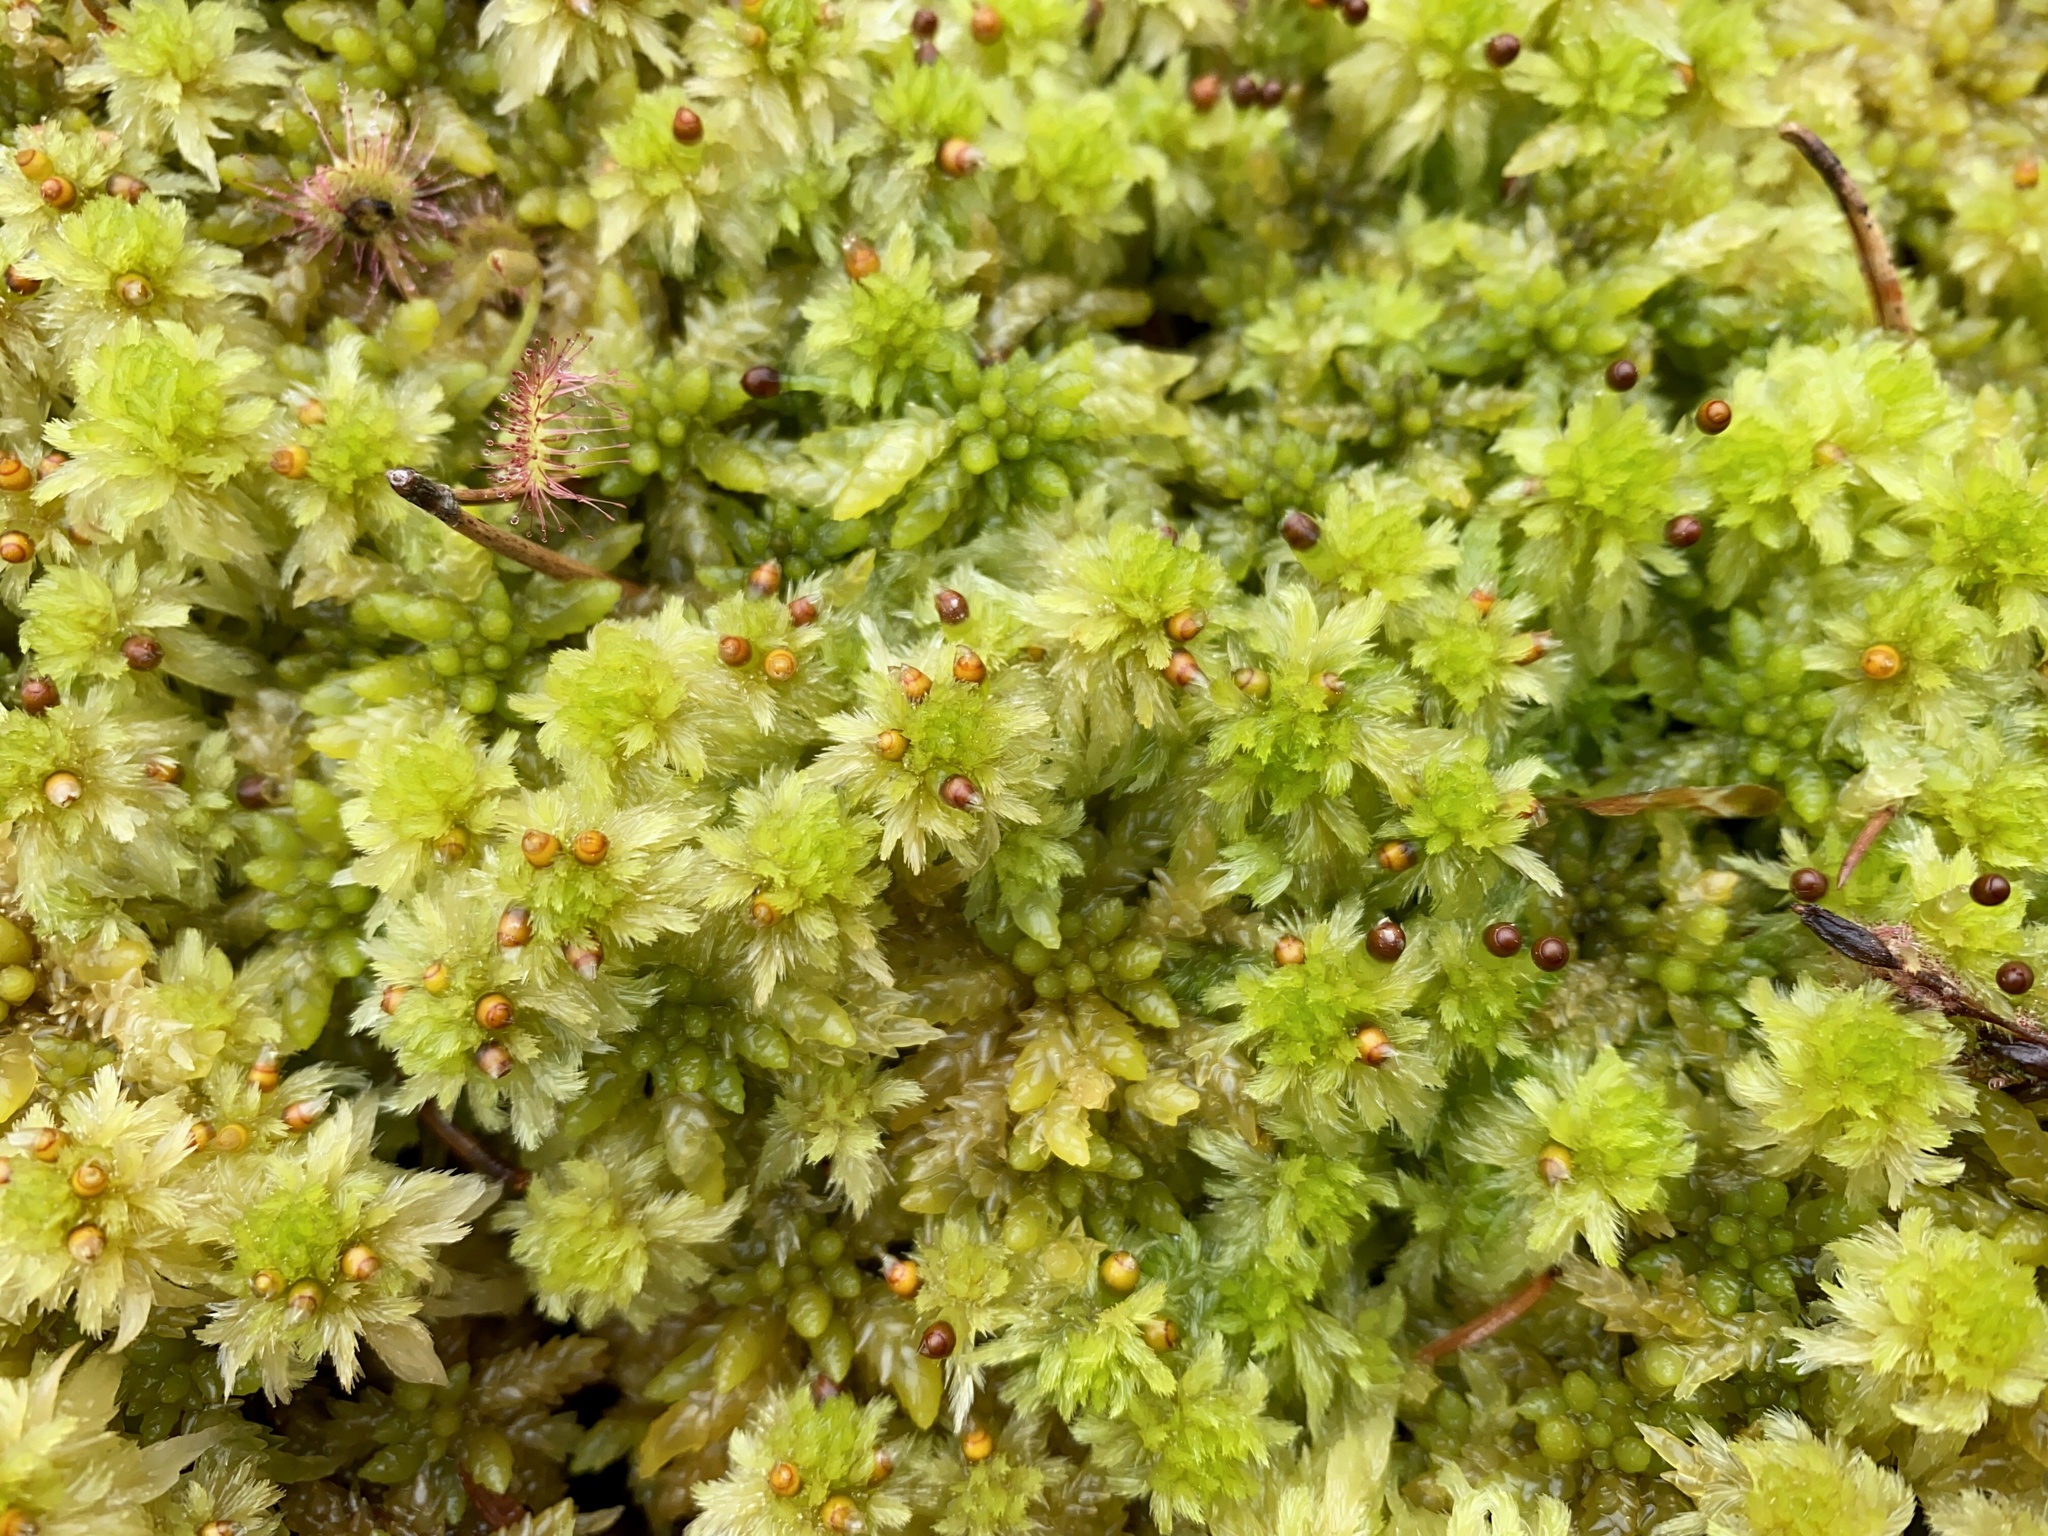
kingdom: Plantae
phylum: Bryophyta
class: Sphagnopsida
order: Sphagnales
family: Sphagnaceae
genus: Sphagnum
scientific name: Sphagnum cuspidatum
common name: Feathery peat moss
